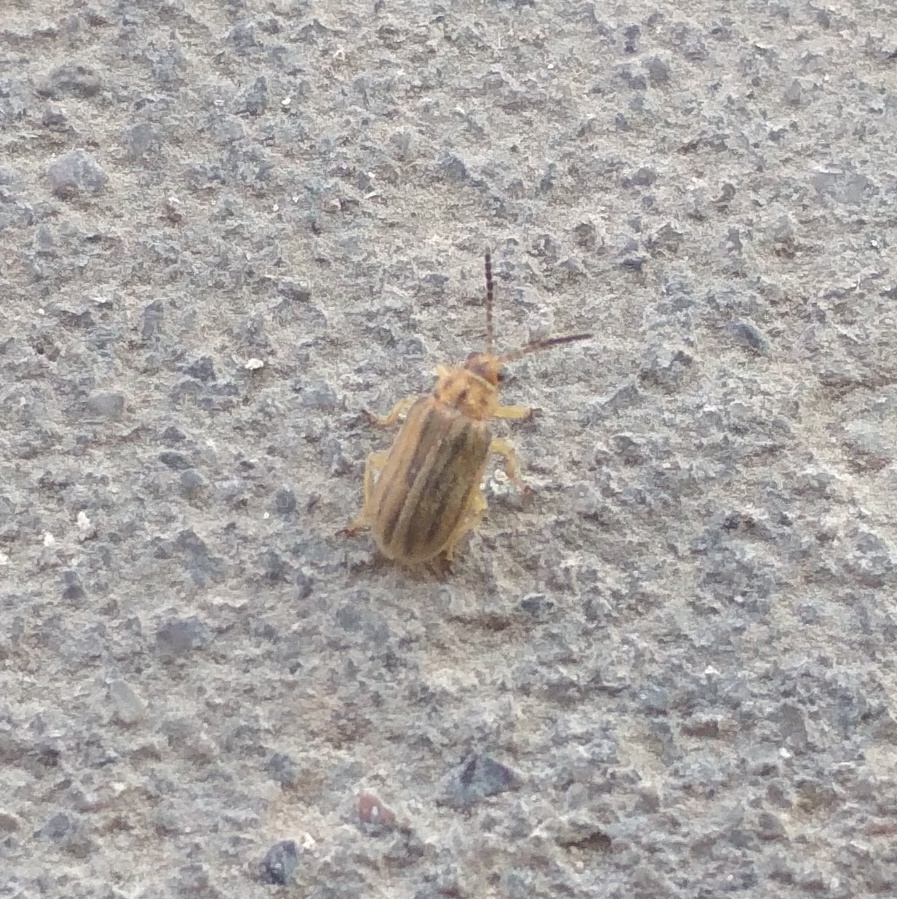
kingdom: Animalia
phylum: Arthropoda
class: Insecta
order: Coleoptera
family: Chrysomelidae
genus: Ophraella
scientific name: Ophraella communa
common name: Ragweed leaf beetle
